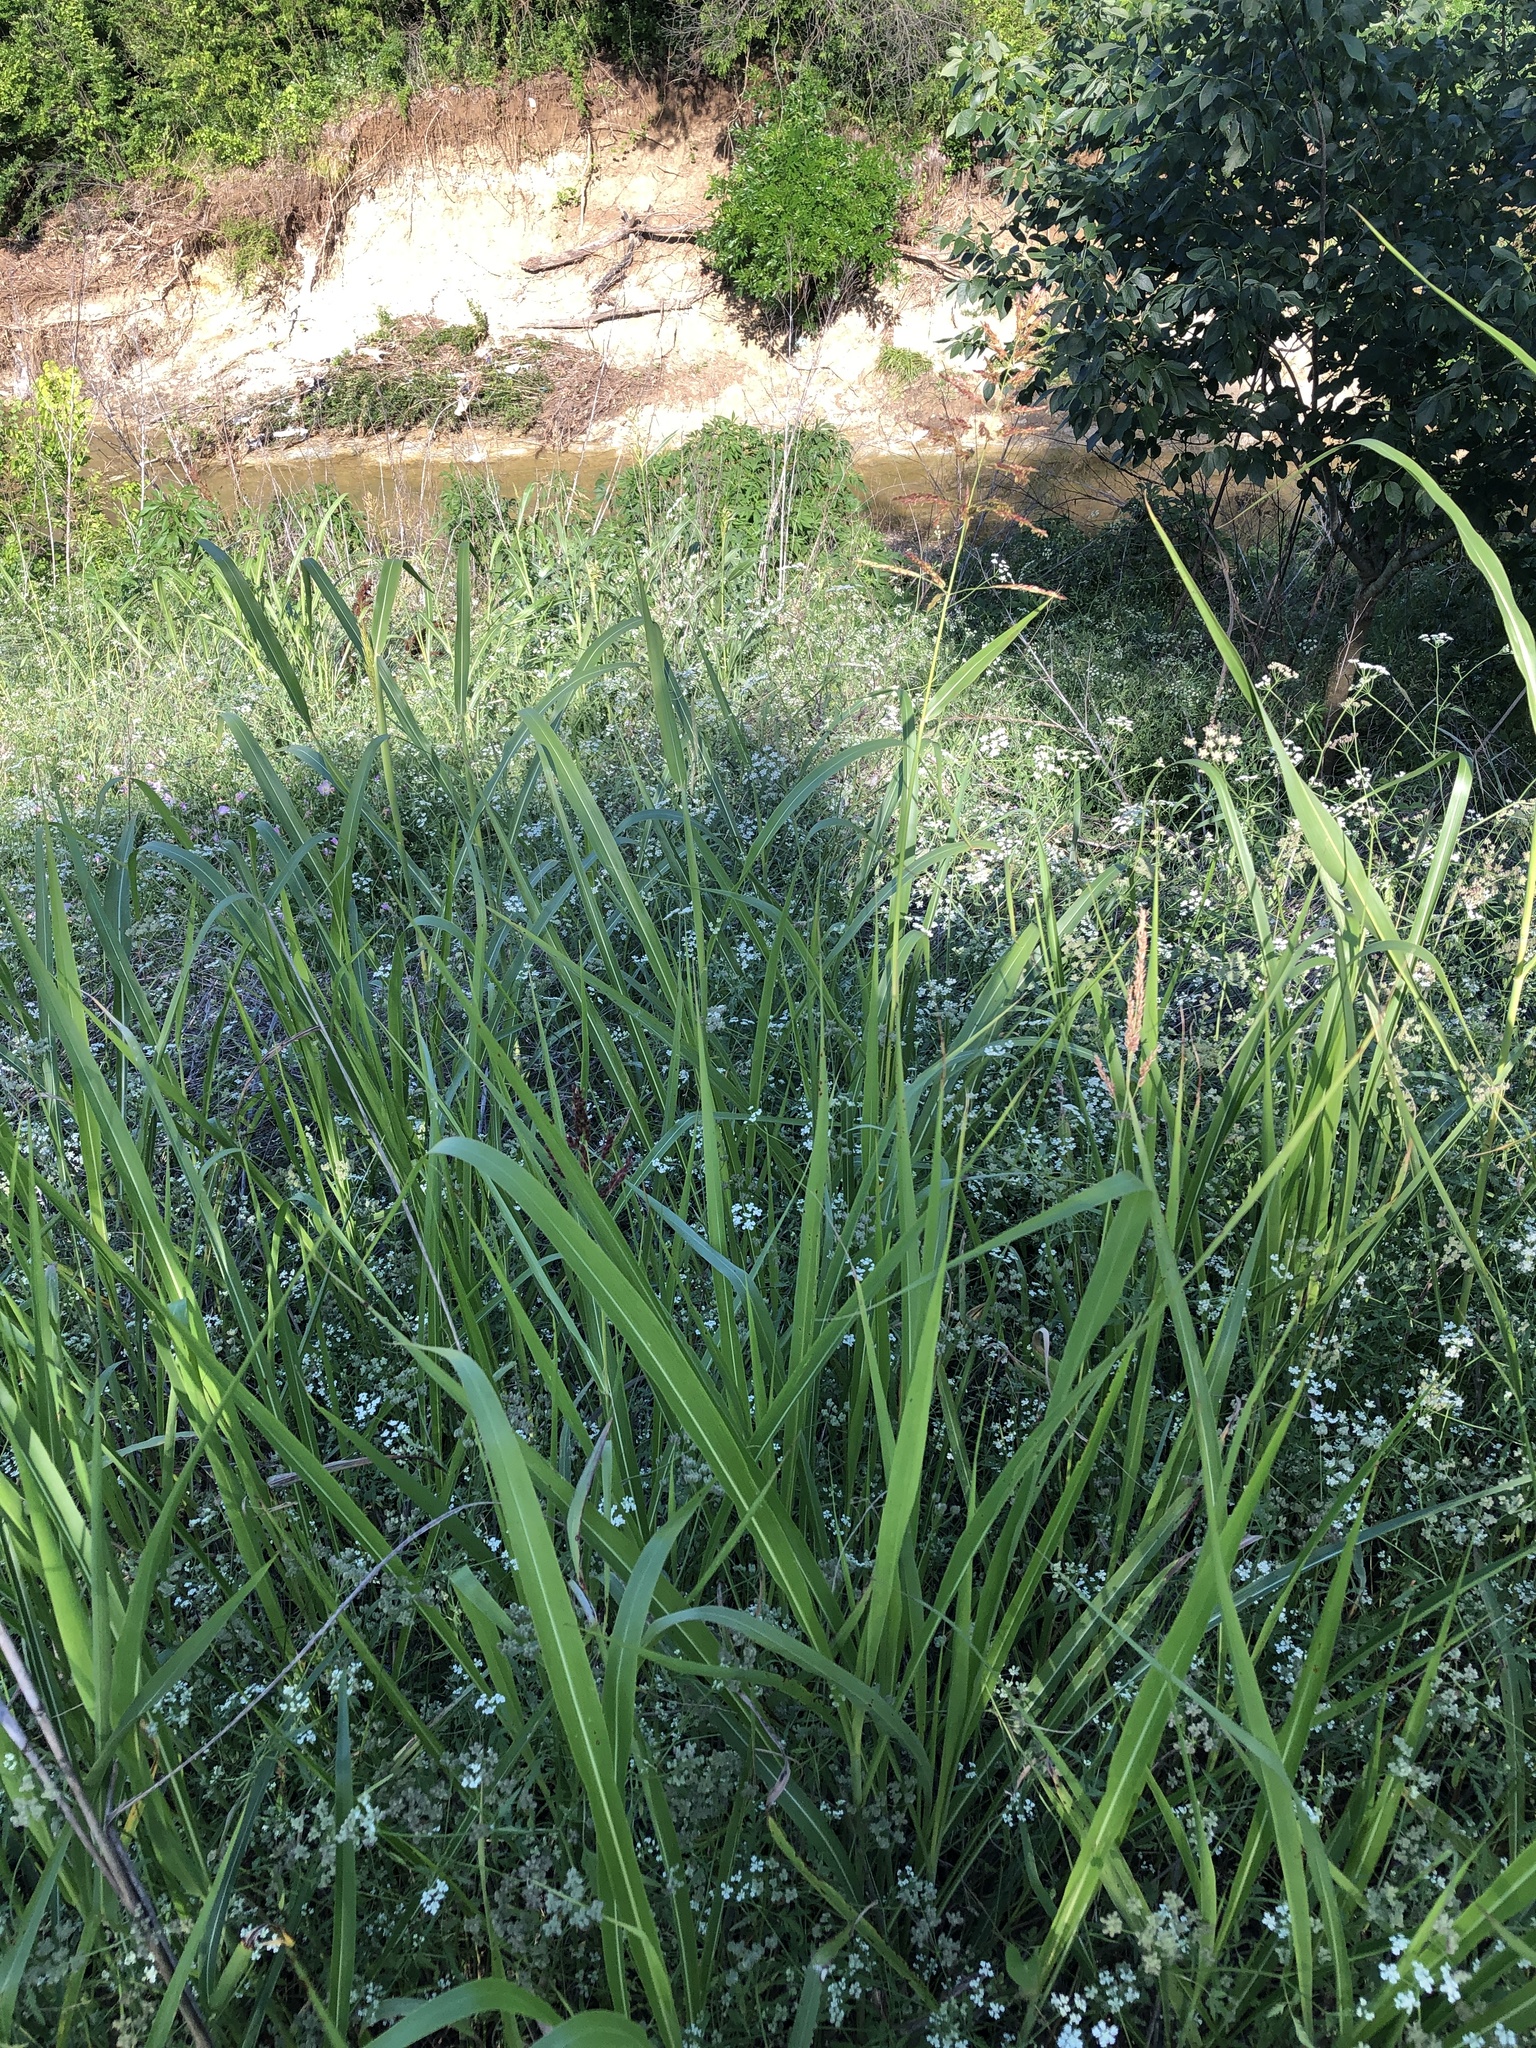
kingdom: Plantae
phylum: Tracheophyta
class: Liliopsida
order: Poales
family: Poaceae
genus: Sorghum
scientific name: Sorghum halepense
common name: Johnson-grass
